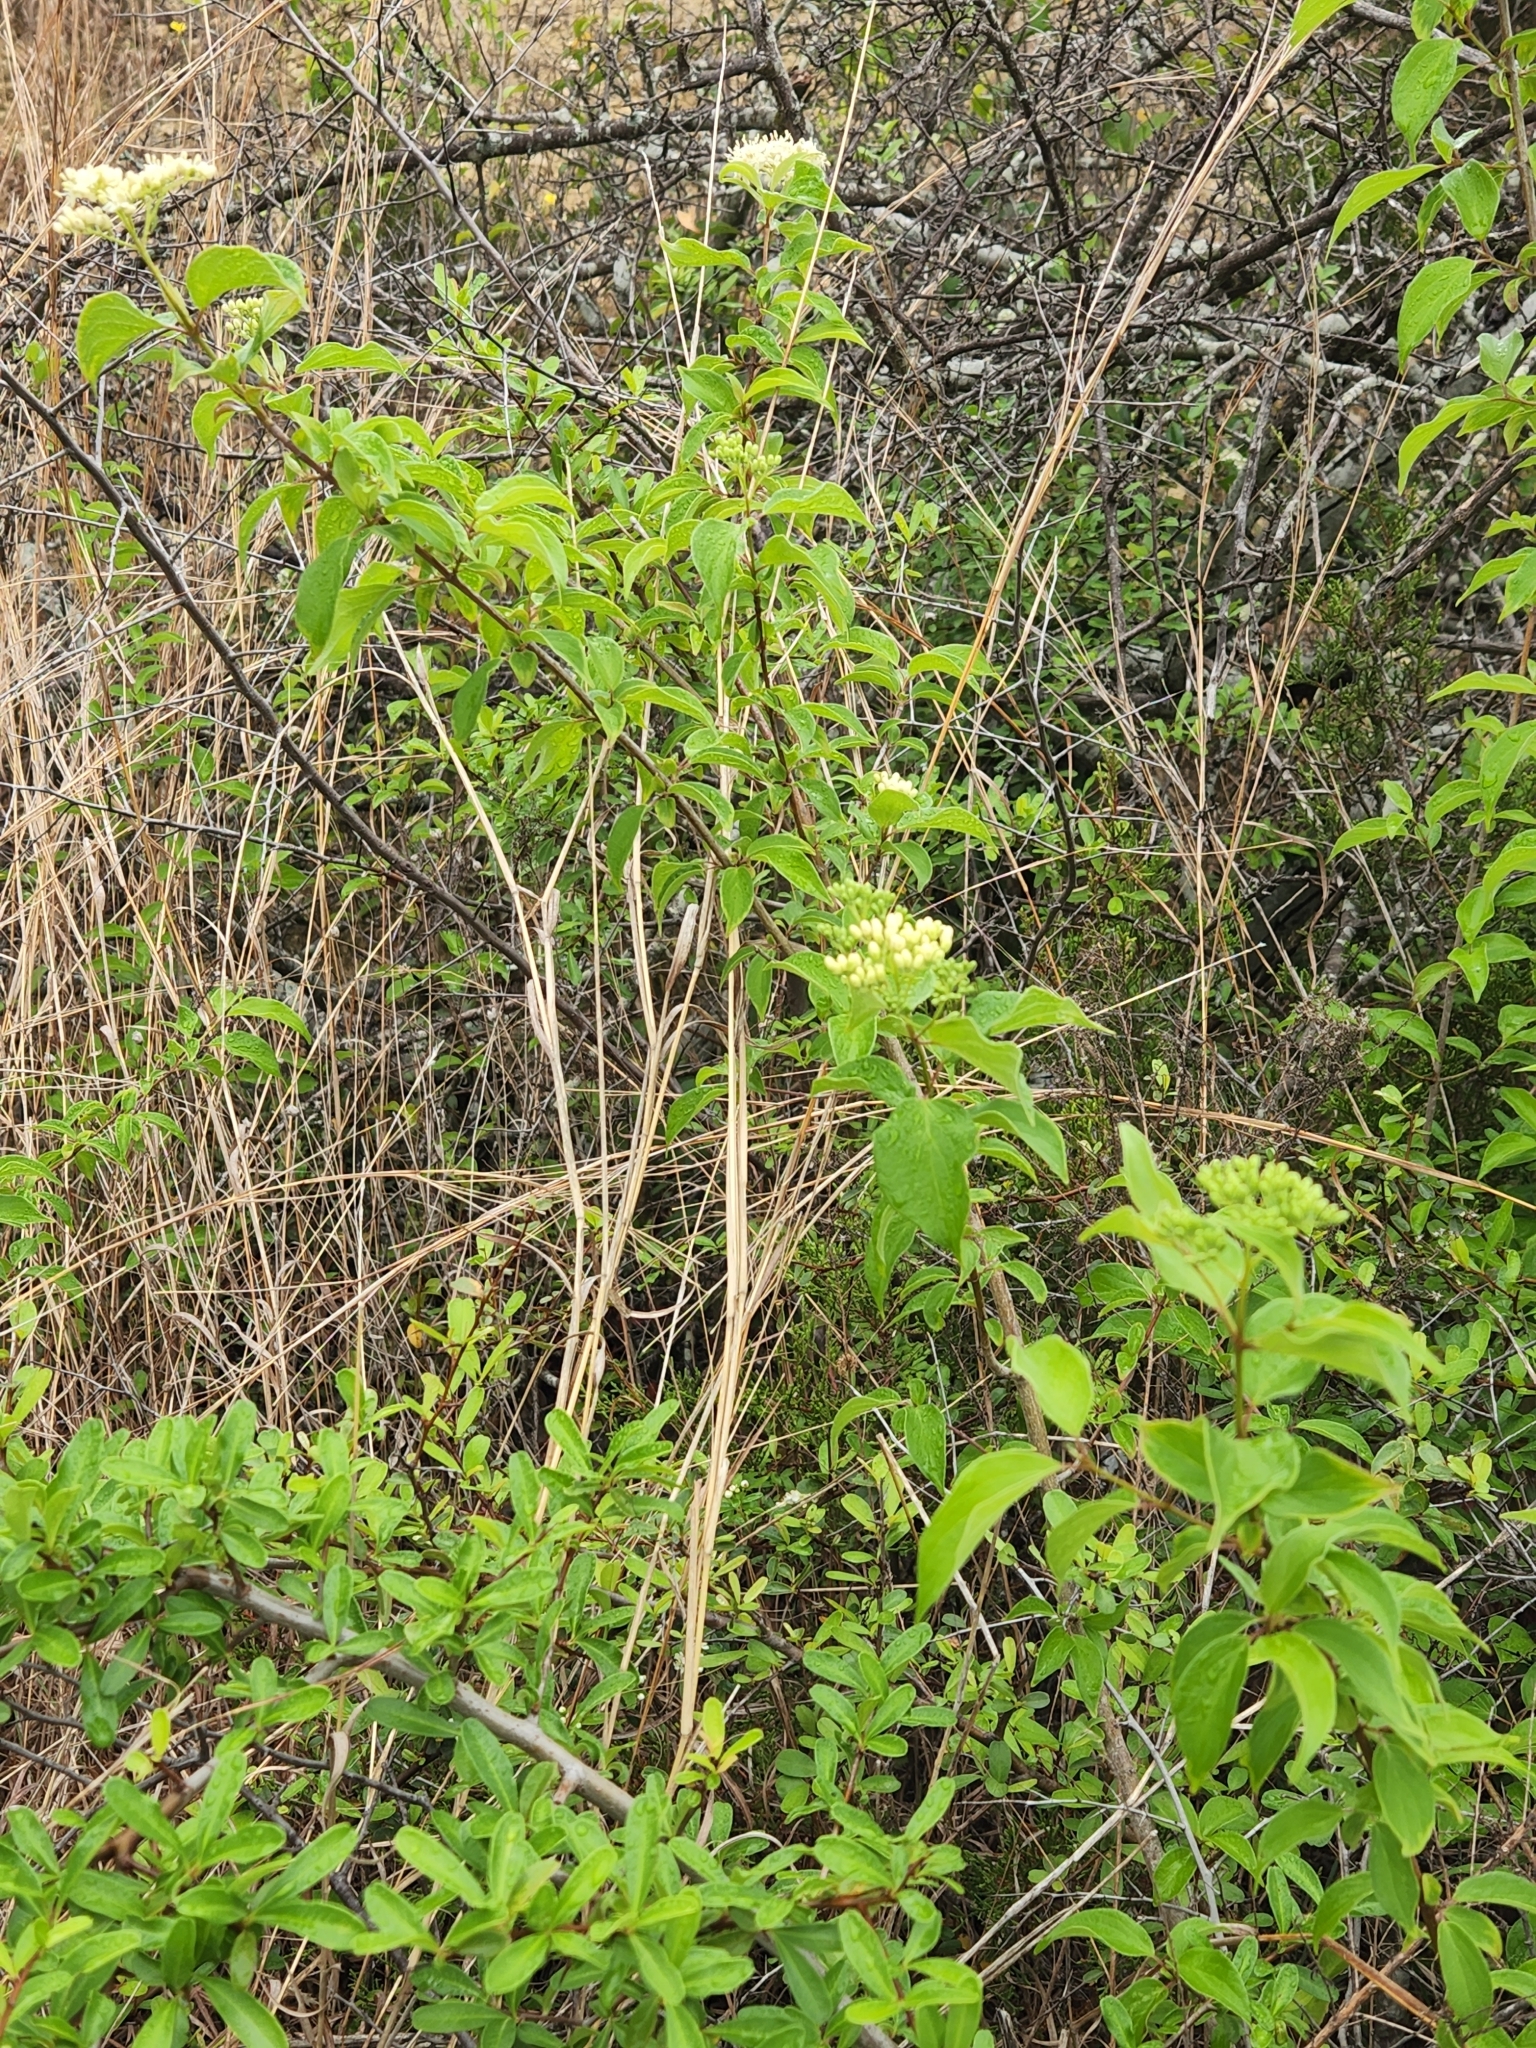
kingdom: Plantae
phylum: Tracheophyta
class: Magnoliopsida
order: Cornales
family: Cornaceae
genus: Cornus
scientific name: Cornus drummondii
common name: Rough-leaf dogwood
